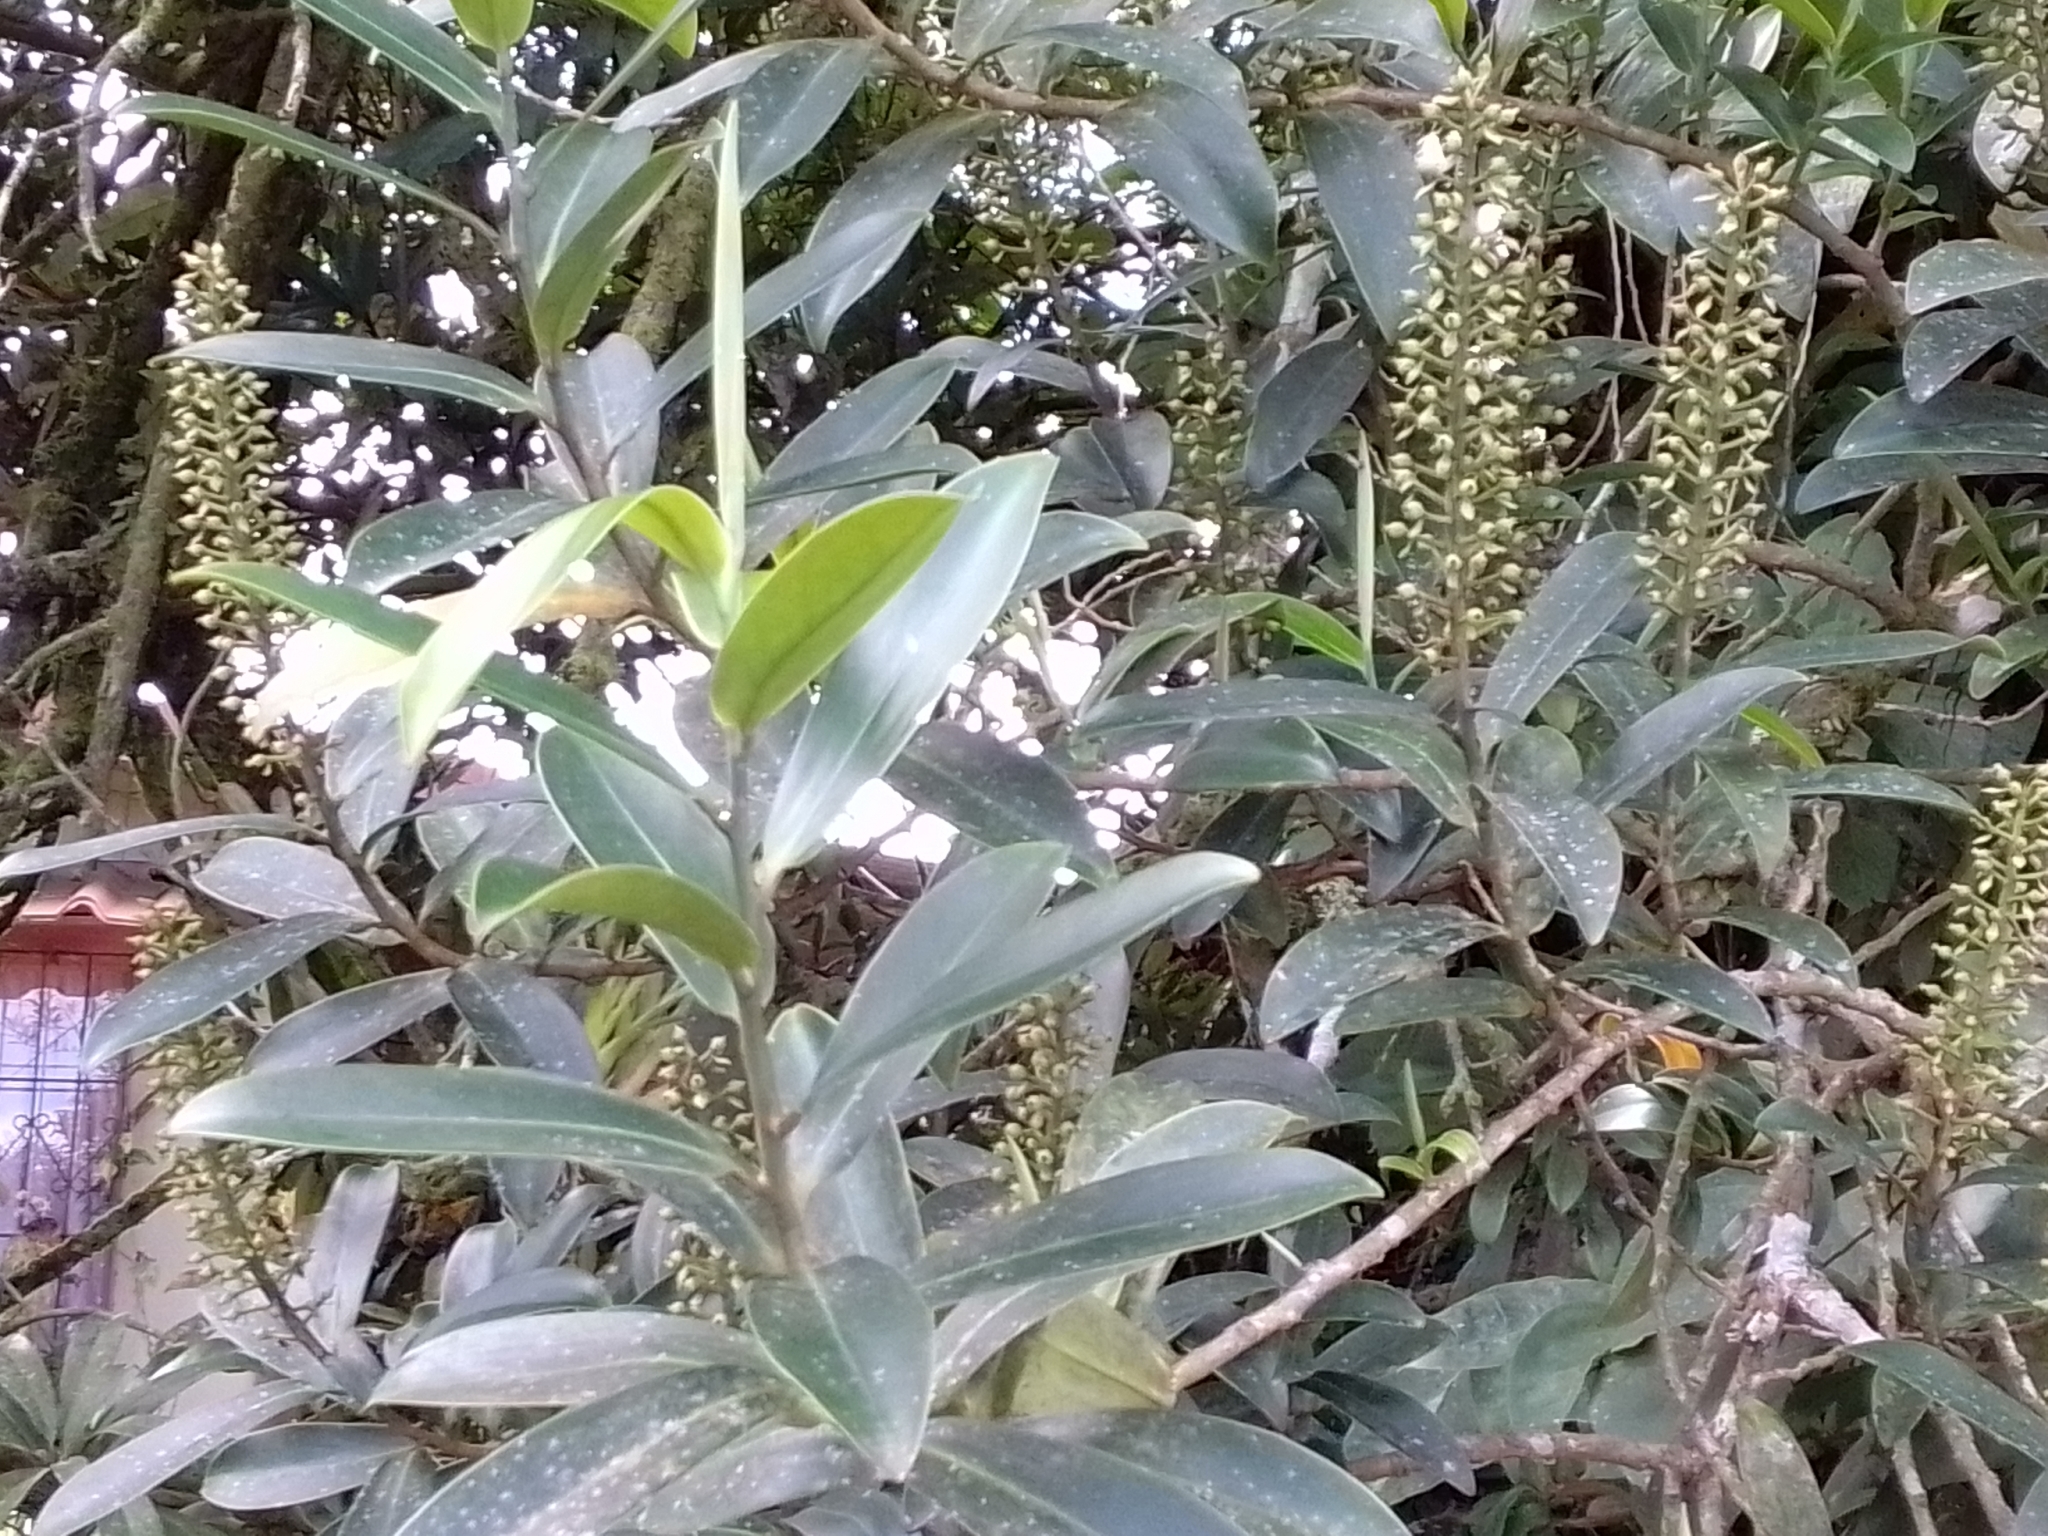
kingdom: Plantae
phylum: Tracheophyta
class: Magnoliopsida
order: Ericales
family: Marcgraviaceae
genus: Ruyschia
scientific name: Ruyschia phylladenia
